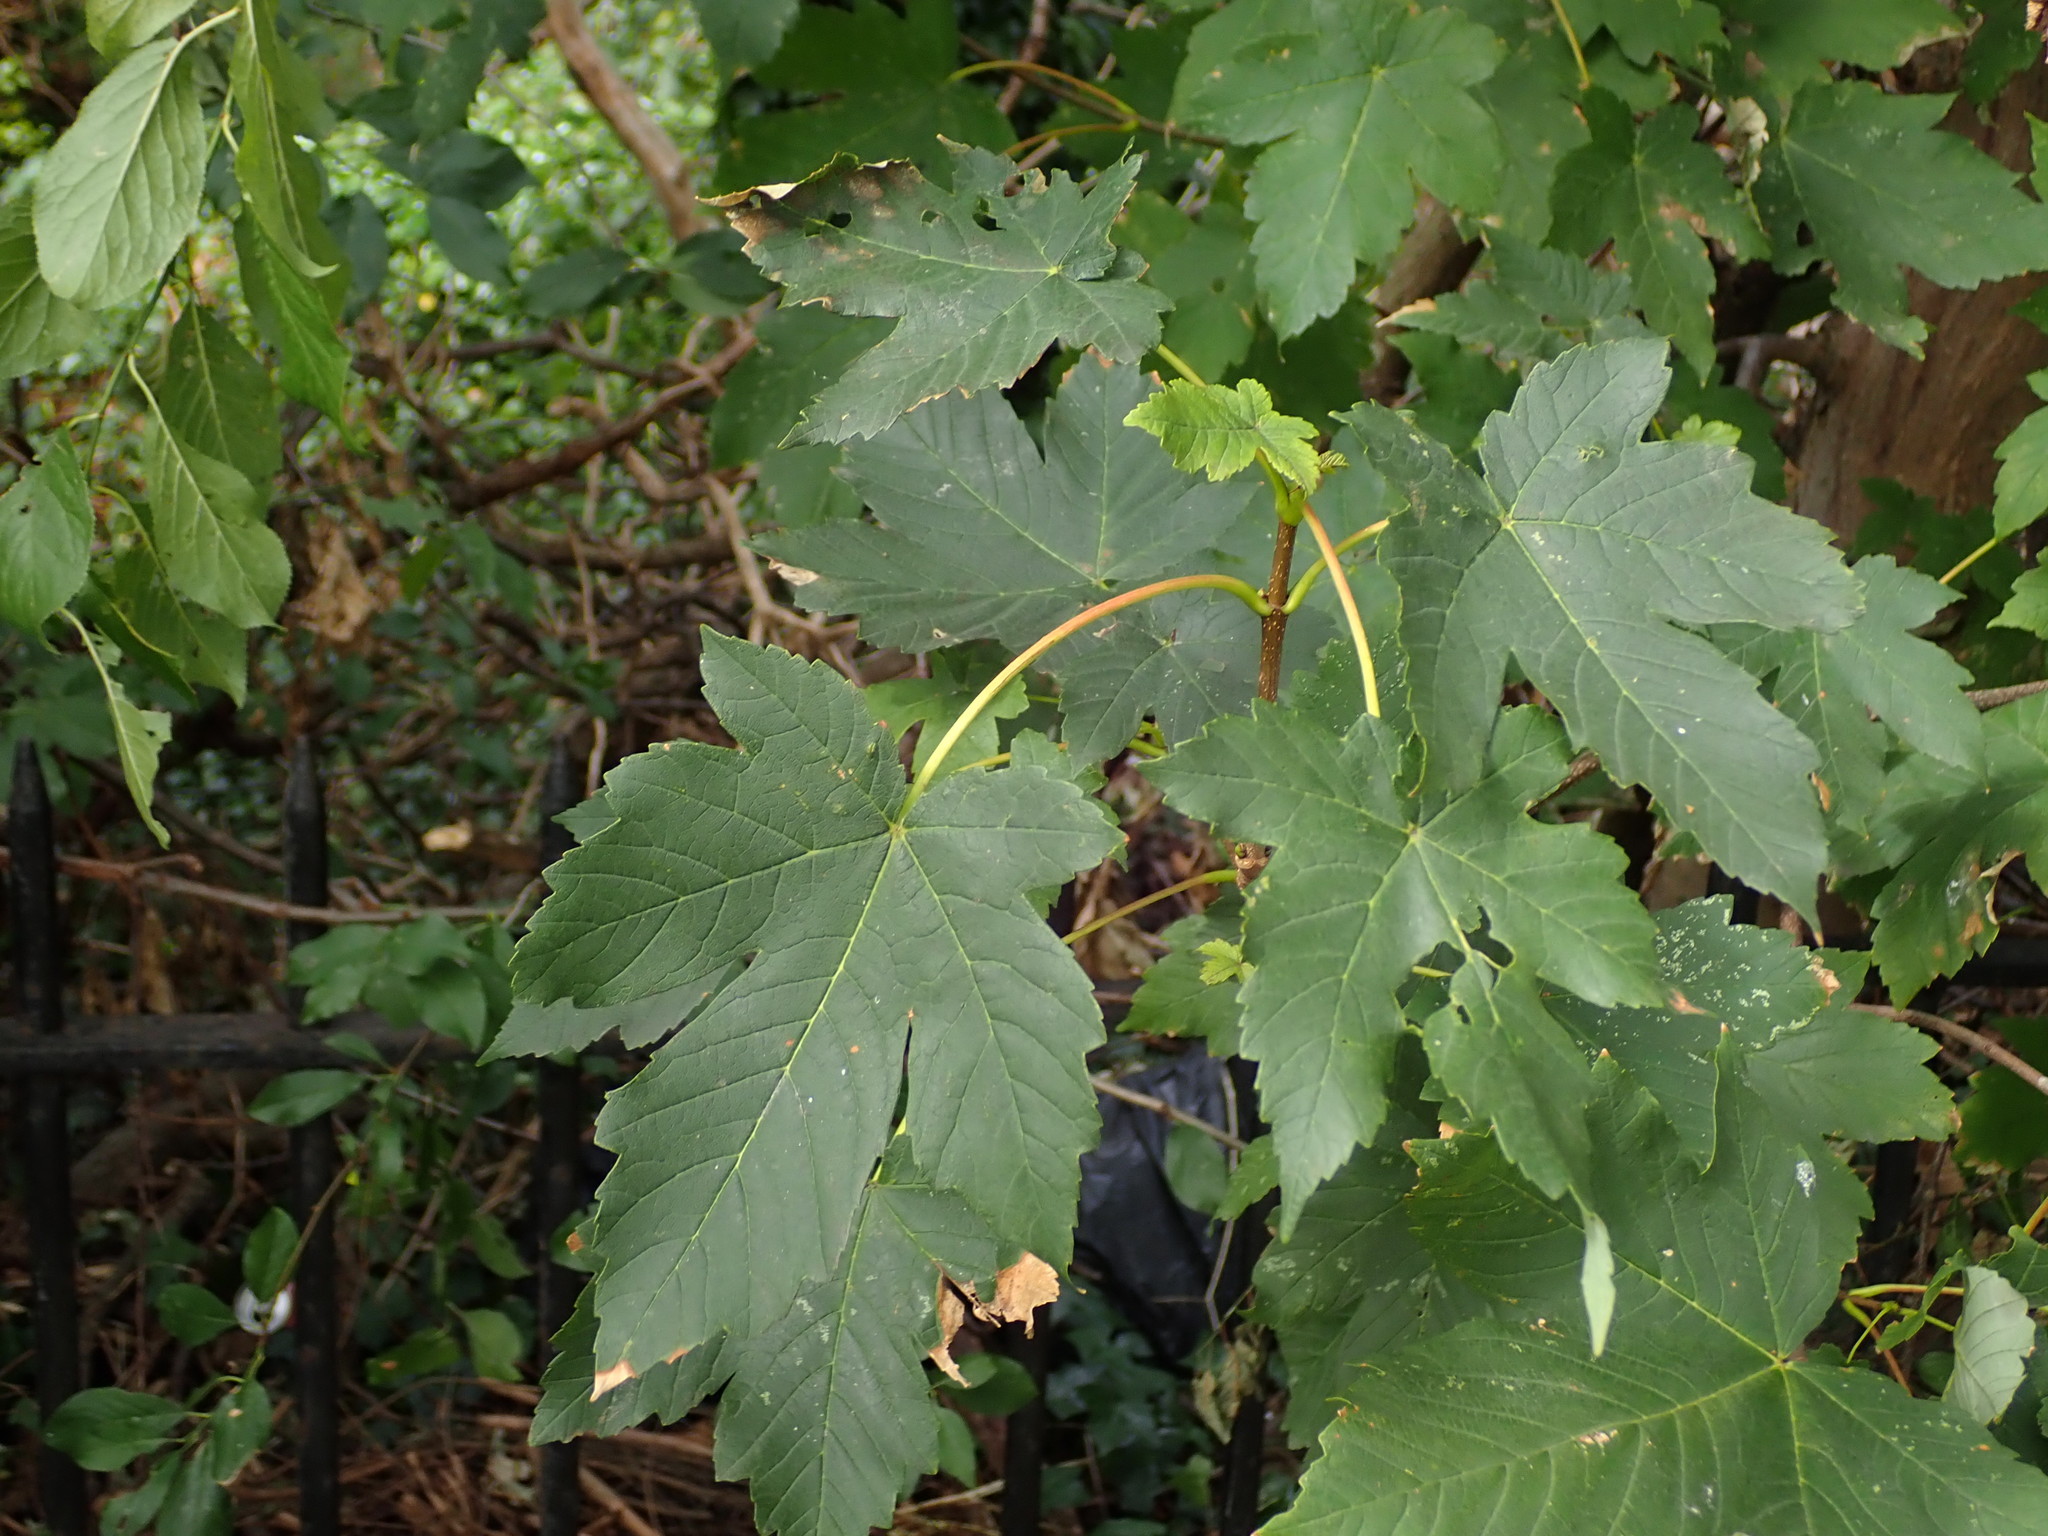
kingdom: Plantae
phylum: Tracheophyta
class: Magnoliopsida
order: Sapindales
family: Sapindaceae
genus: Acer
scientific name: Acer pseudoplatanus
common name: Sycamore
